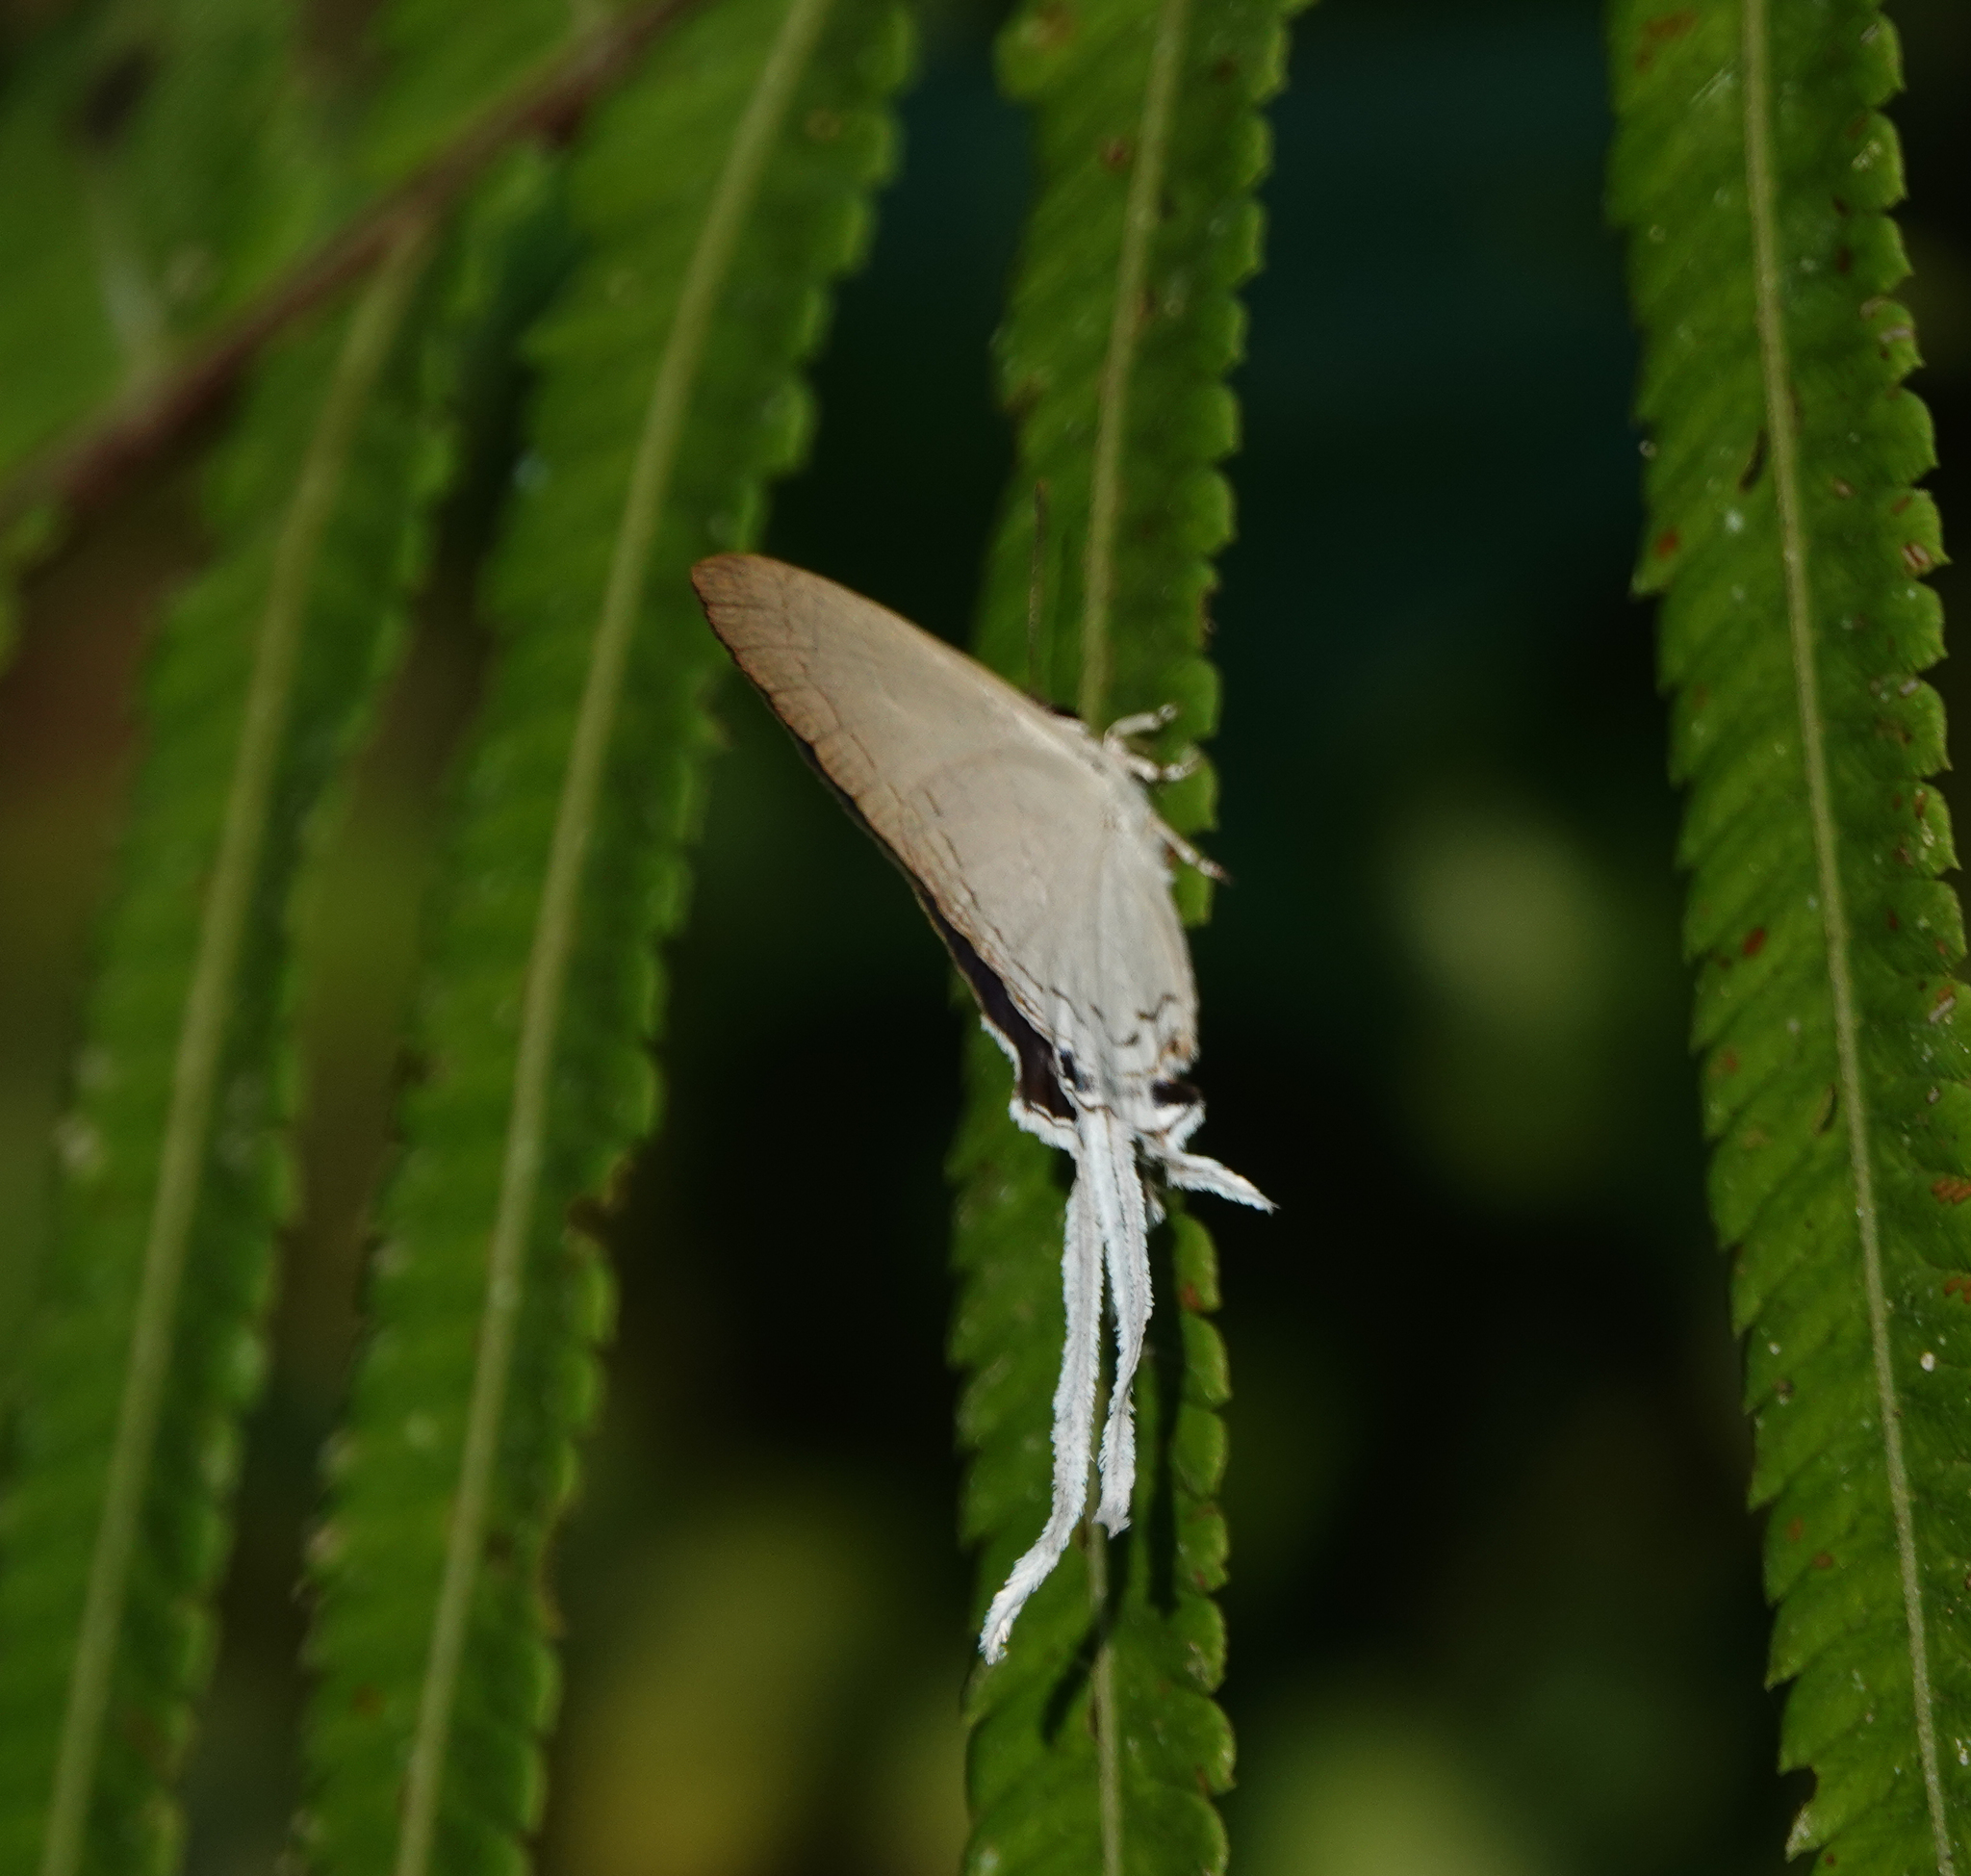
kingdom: Animalia
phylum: Arthropoda
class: Insecta
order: Lepidoptera
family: Lycaenidae
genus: Cheritra
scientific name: Cheritra freja
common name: Common imperial
